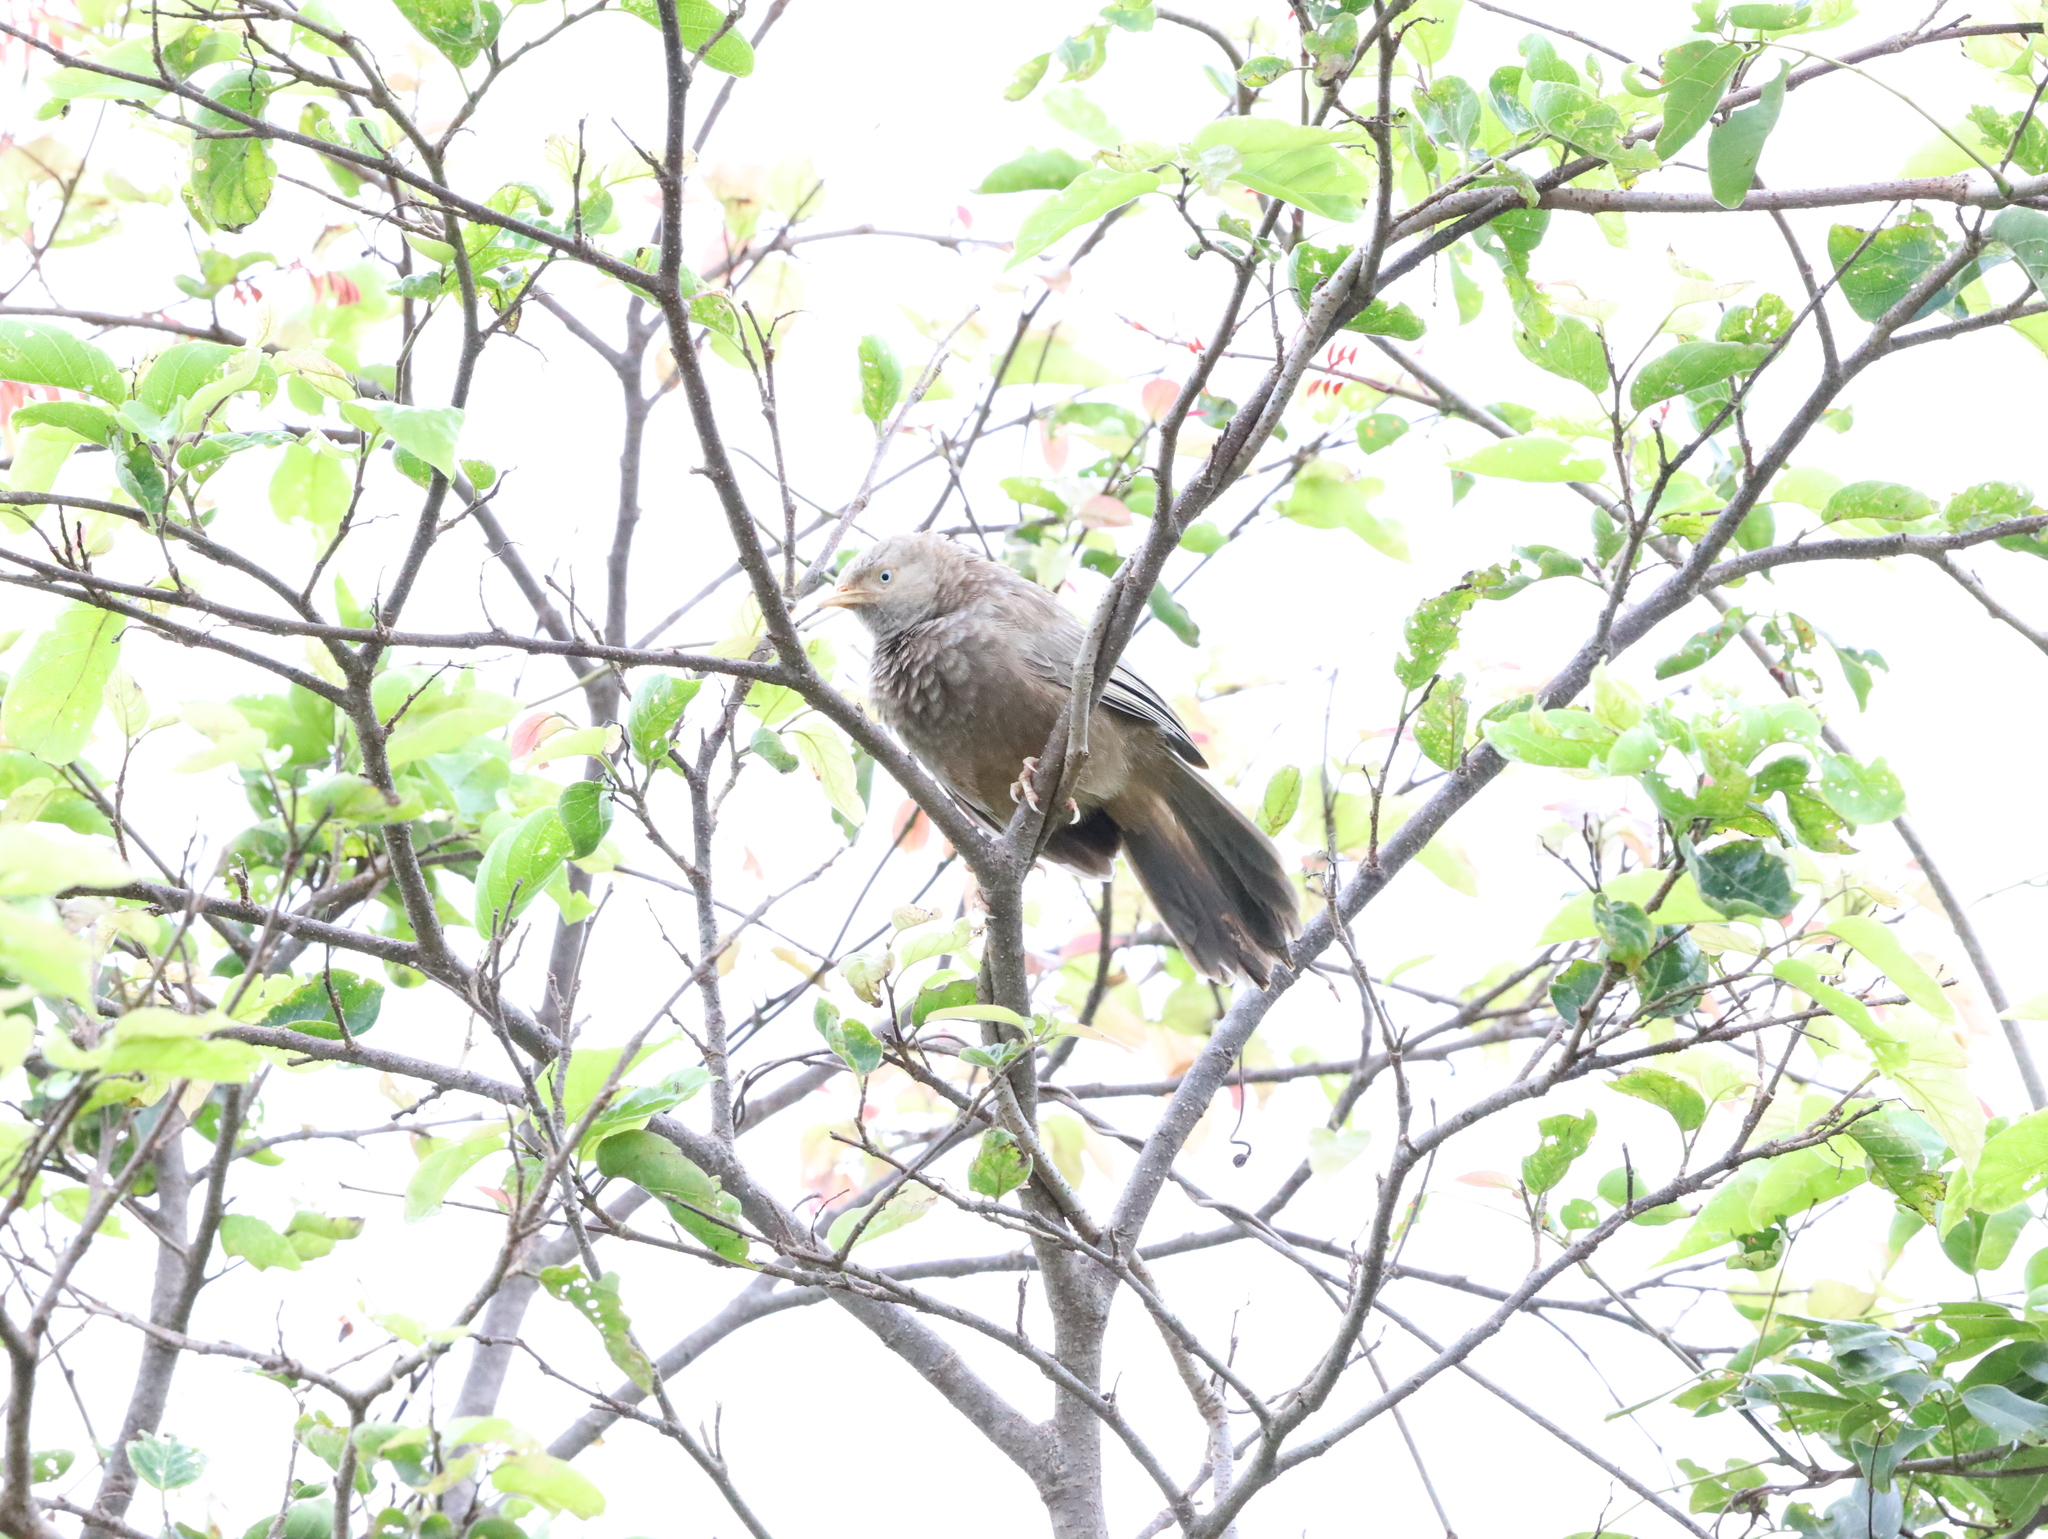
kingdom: Animalia
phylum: Chordata
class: Aves
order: Passeriformes
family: Leiothrichidae
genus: Turdoides
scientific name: Turdoides affinis
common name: Yellow-billed babbler
